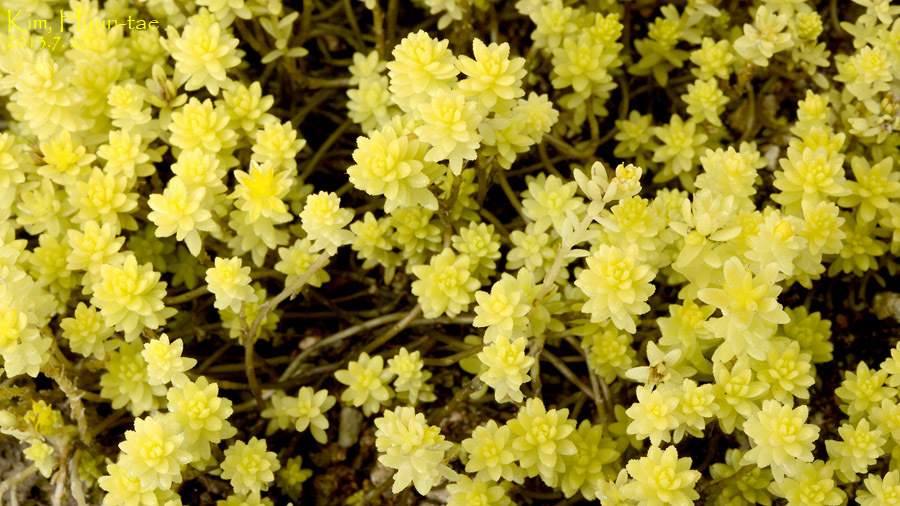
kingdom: Plantae
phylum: Tracheophyta
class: Magnoliopsida
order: Saxifragales
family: Crassulaceae
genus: Sedum
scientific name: Sedum japonicum
